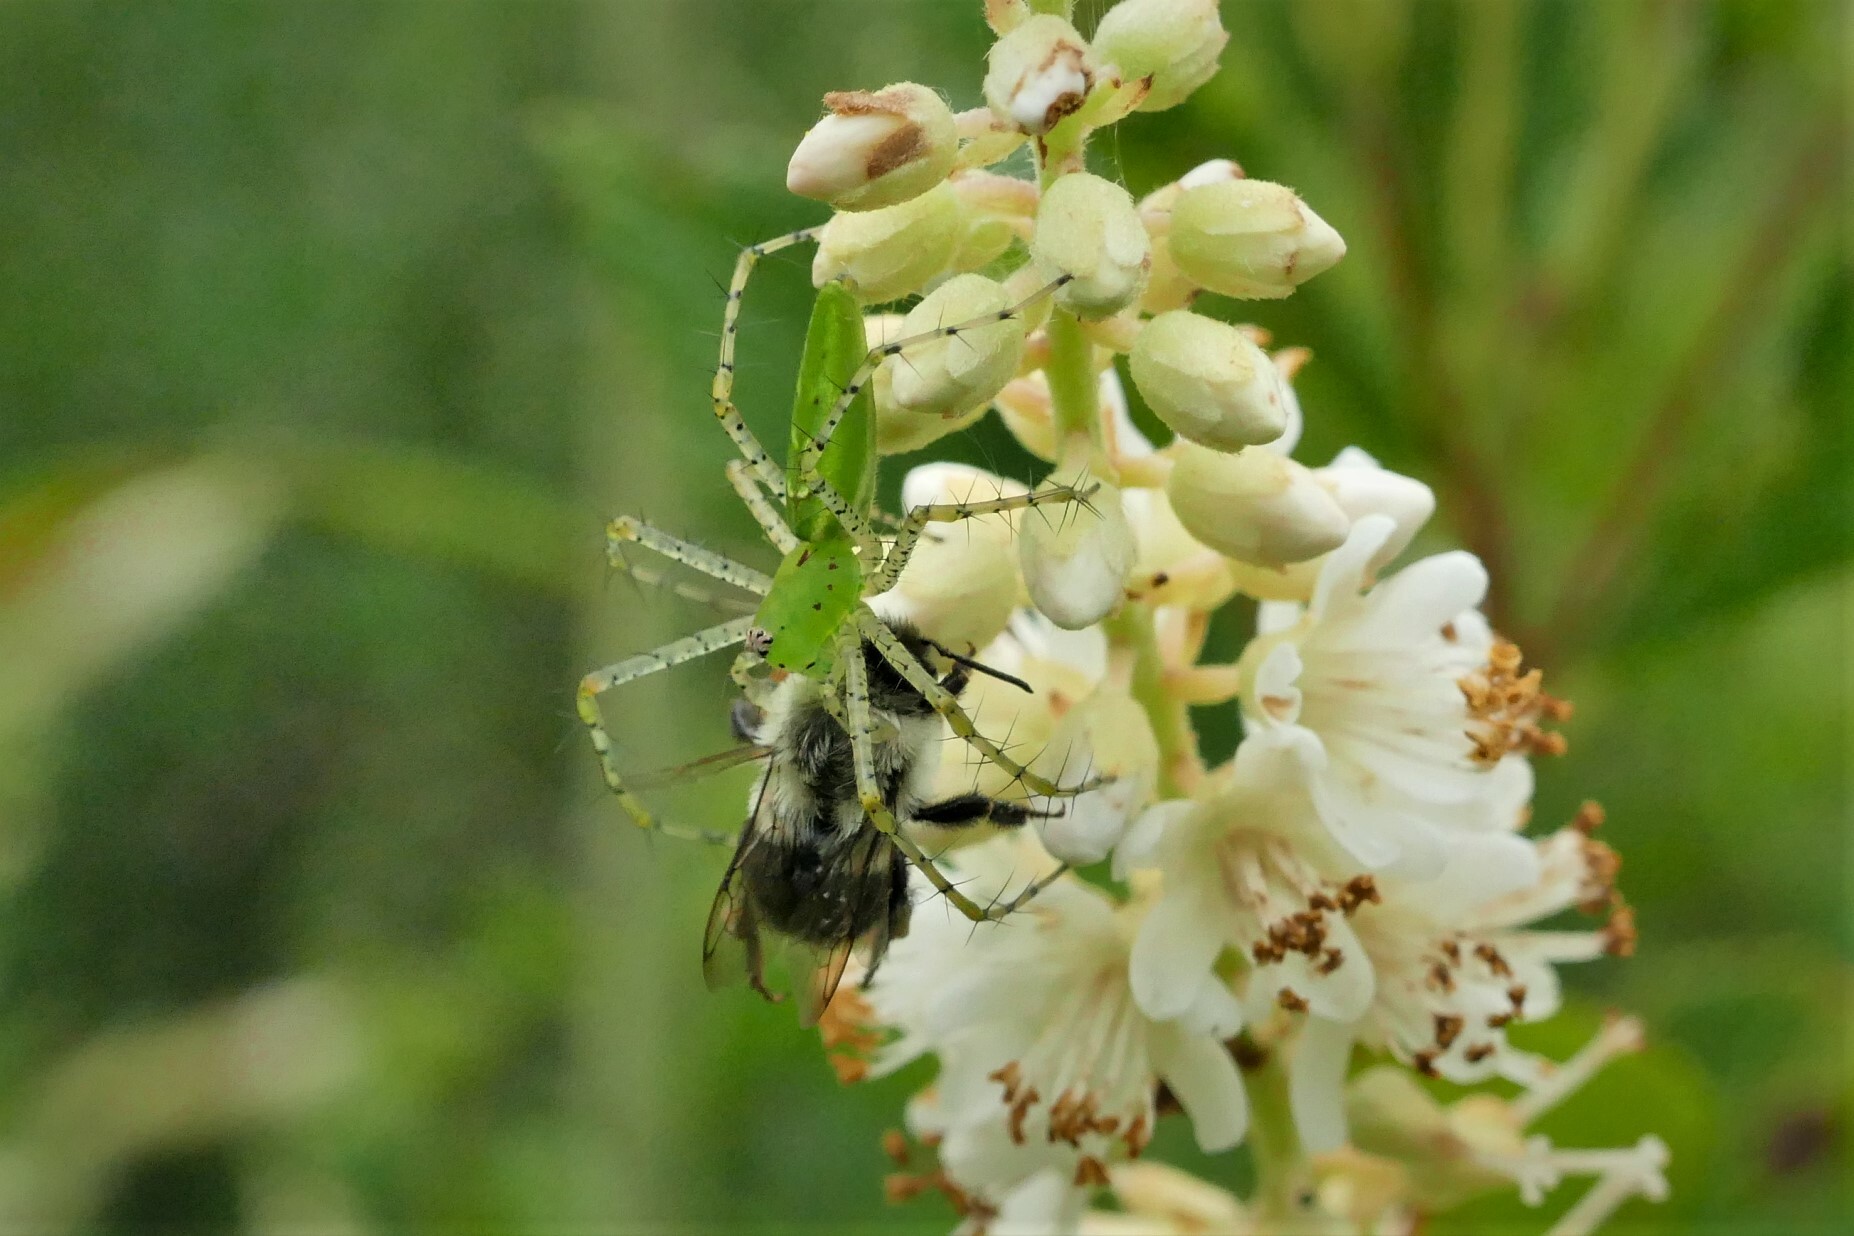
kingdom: Animalia
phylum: Arthropoda
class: Arachnida
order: Araneae
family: Oxyopidae
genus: Peucetia
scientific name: Peucetia viridans
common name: Lynx spiders
